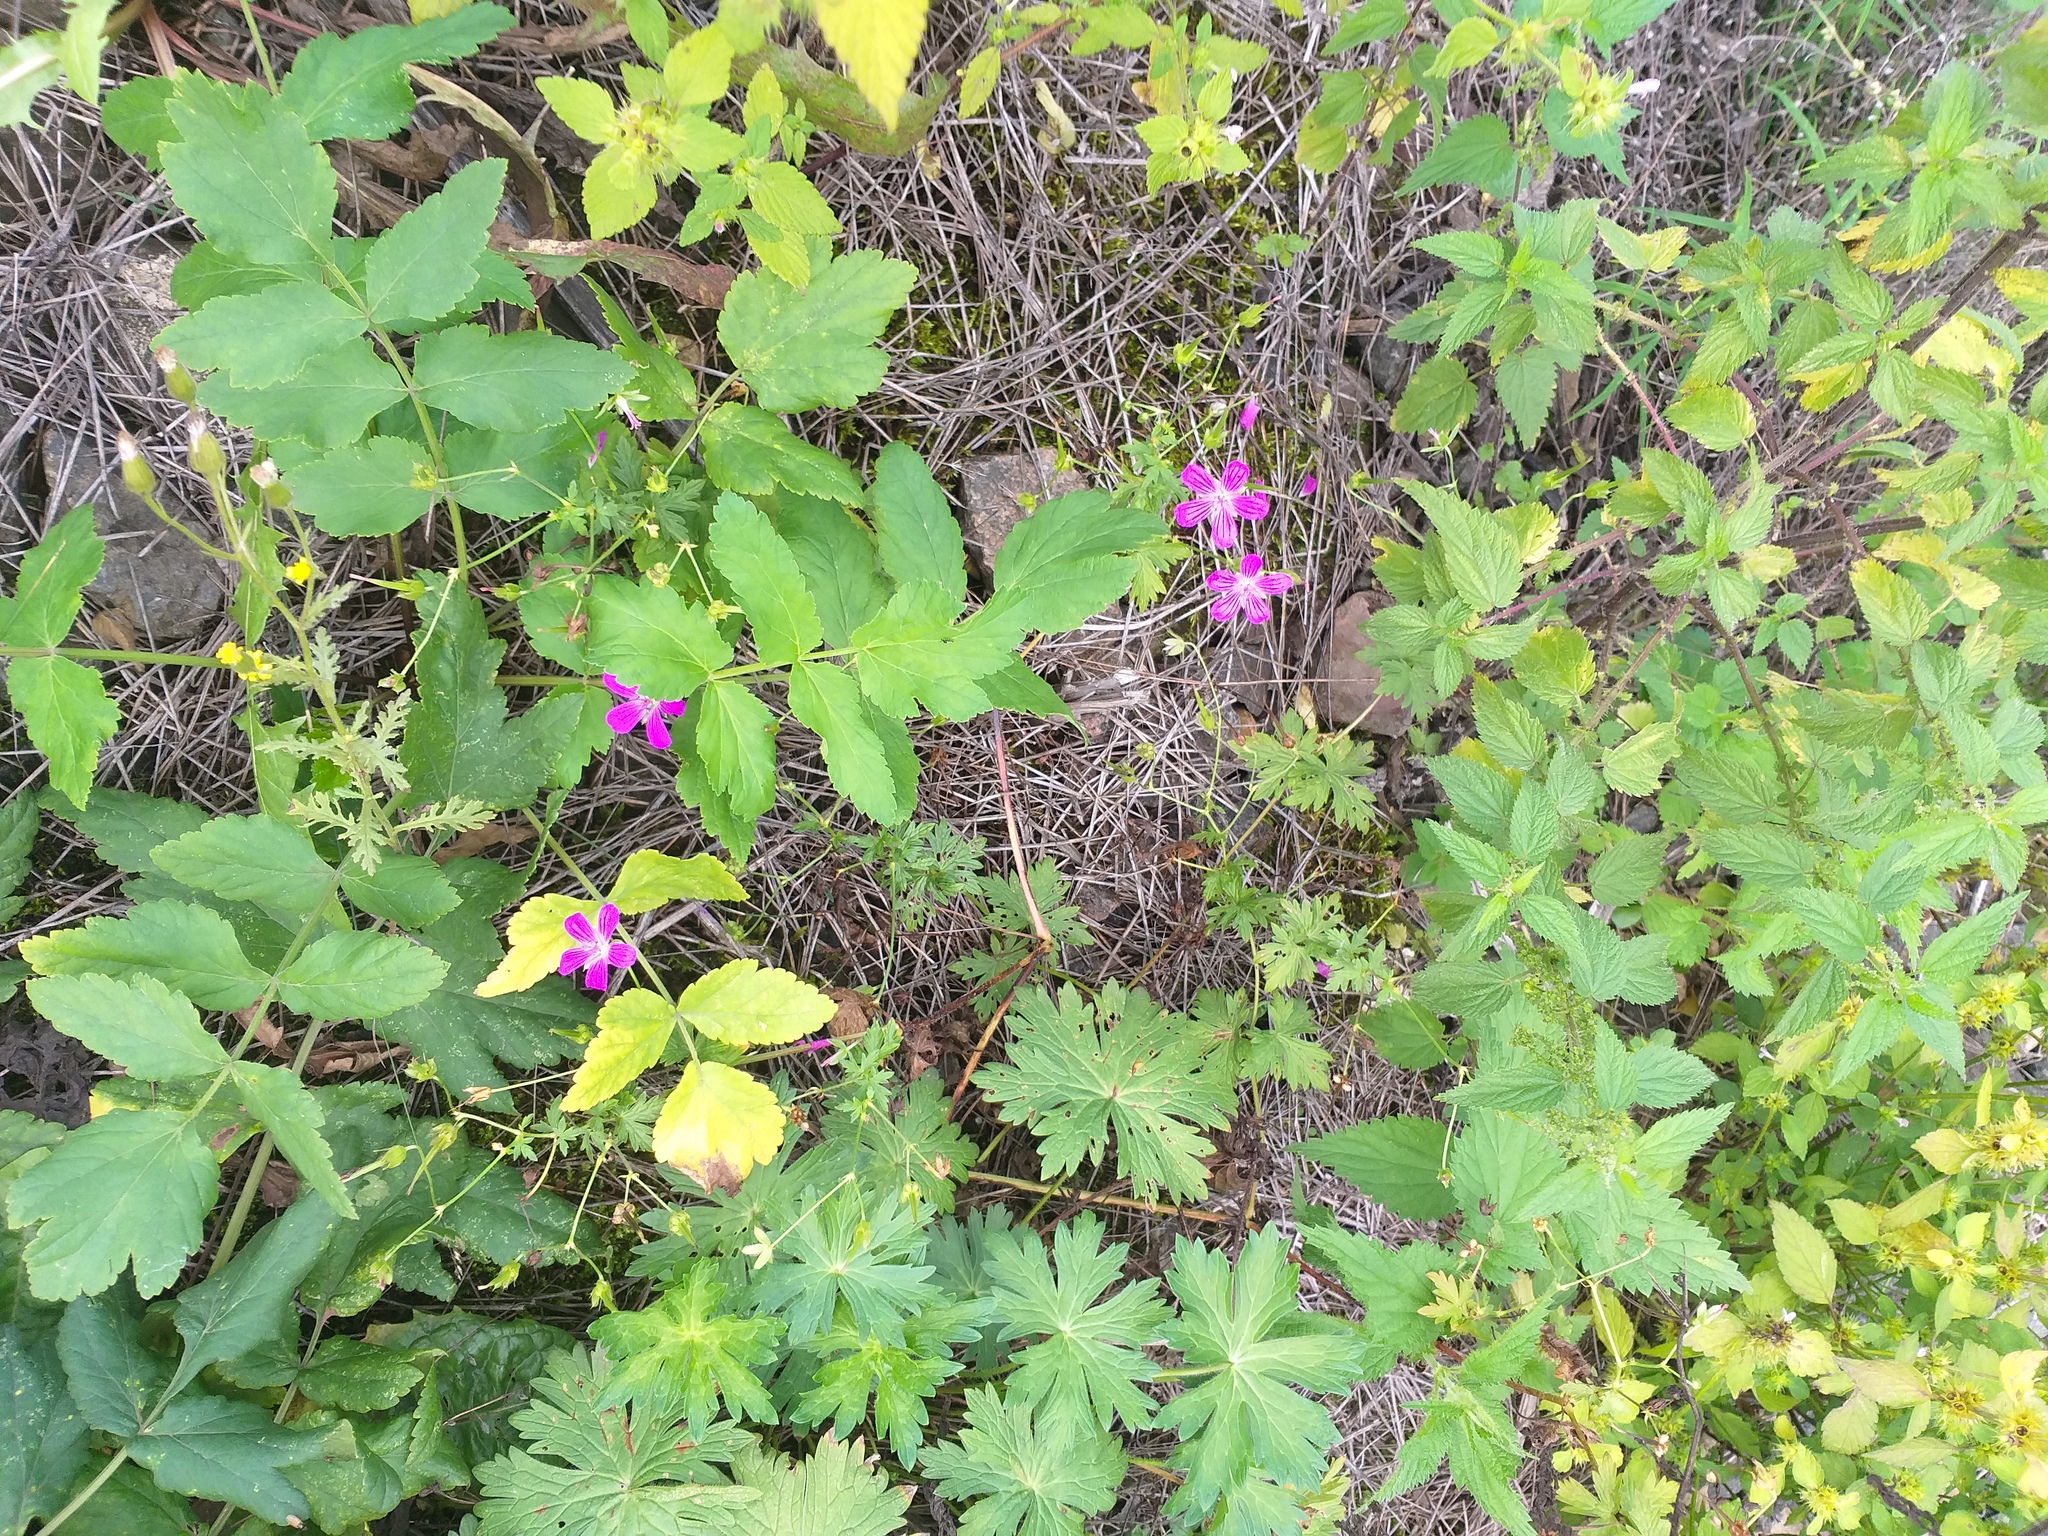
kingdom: Plantae
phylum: Tracheophyta
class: Magnoliopsida
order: Geraniales
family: Geraniaceae
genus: Geranium
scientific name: Geranium palustre
